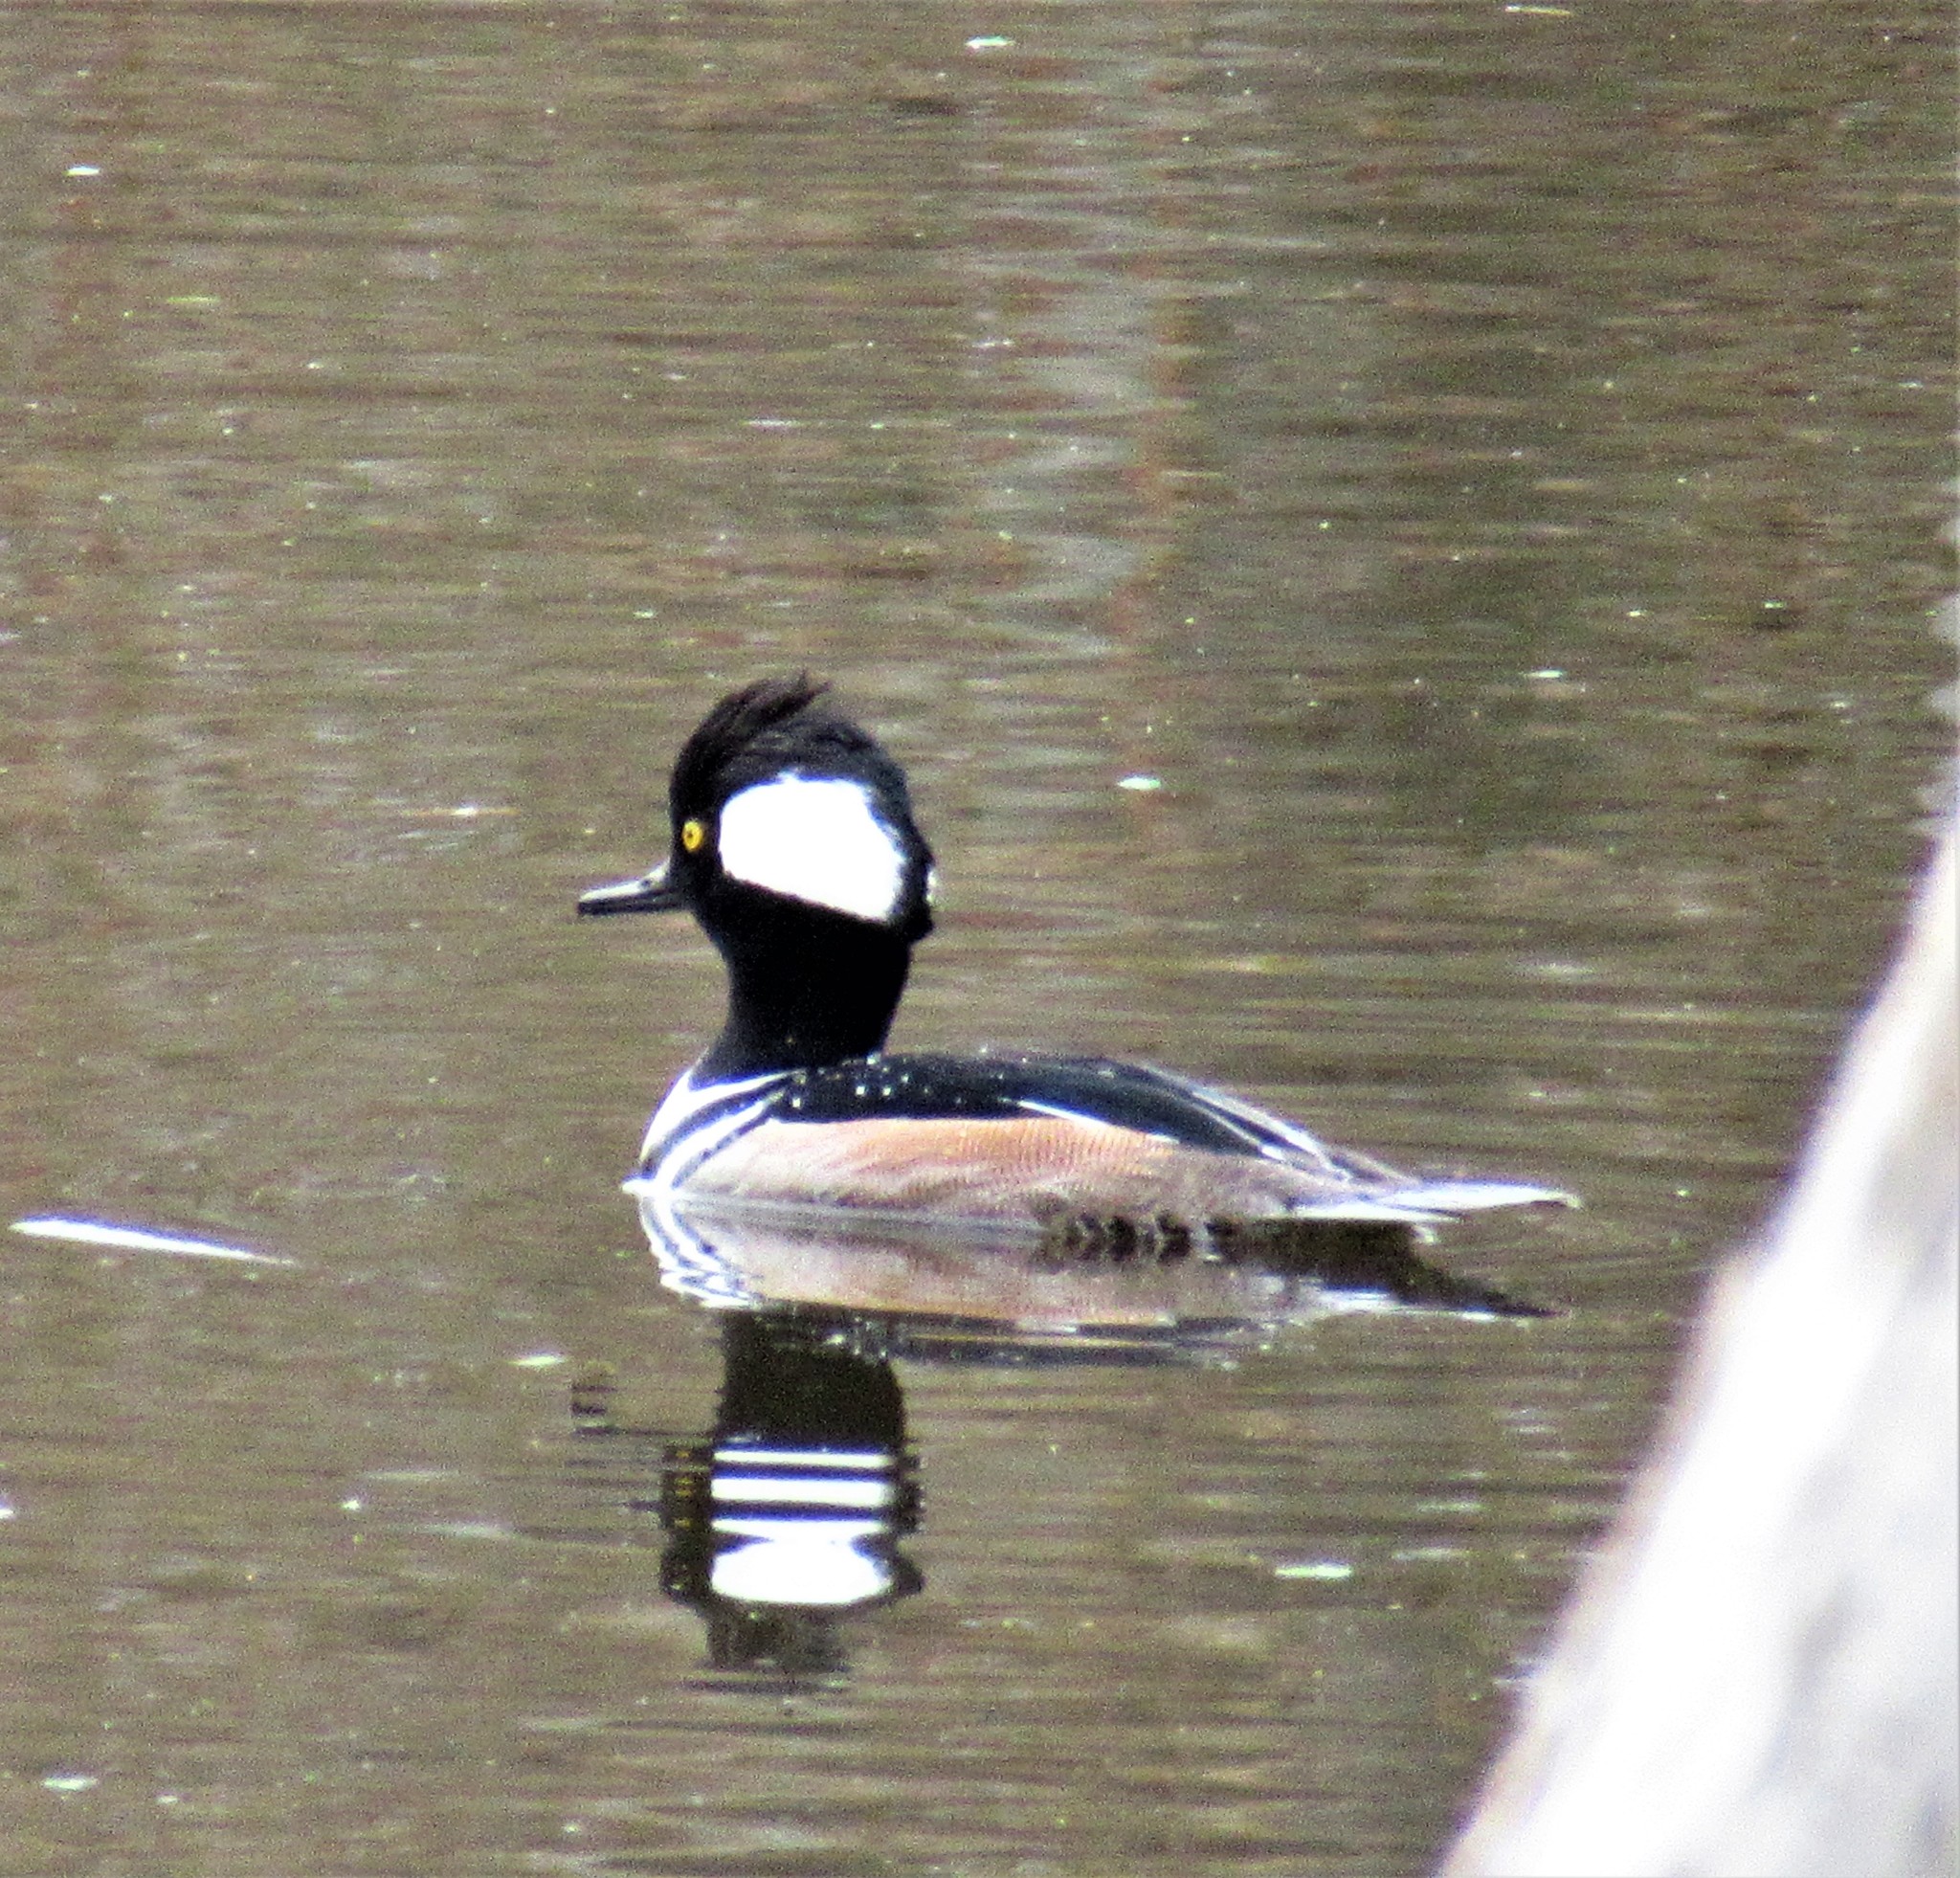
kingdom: Animalia
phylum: Chordata
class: Aves
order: Anseriformes
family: Anatidae
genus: Lophodytes
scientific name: Lophodytes cucullatus
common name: Hooded merganser
